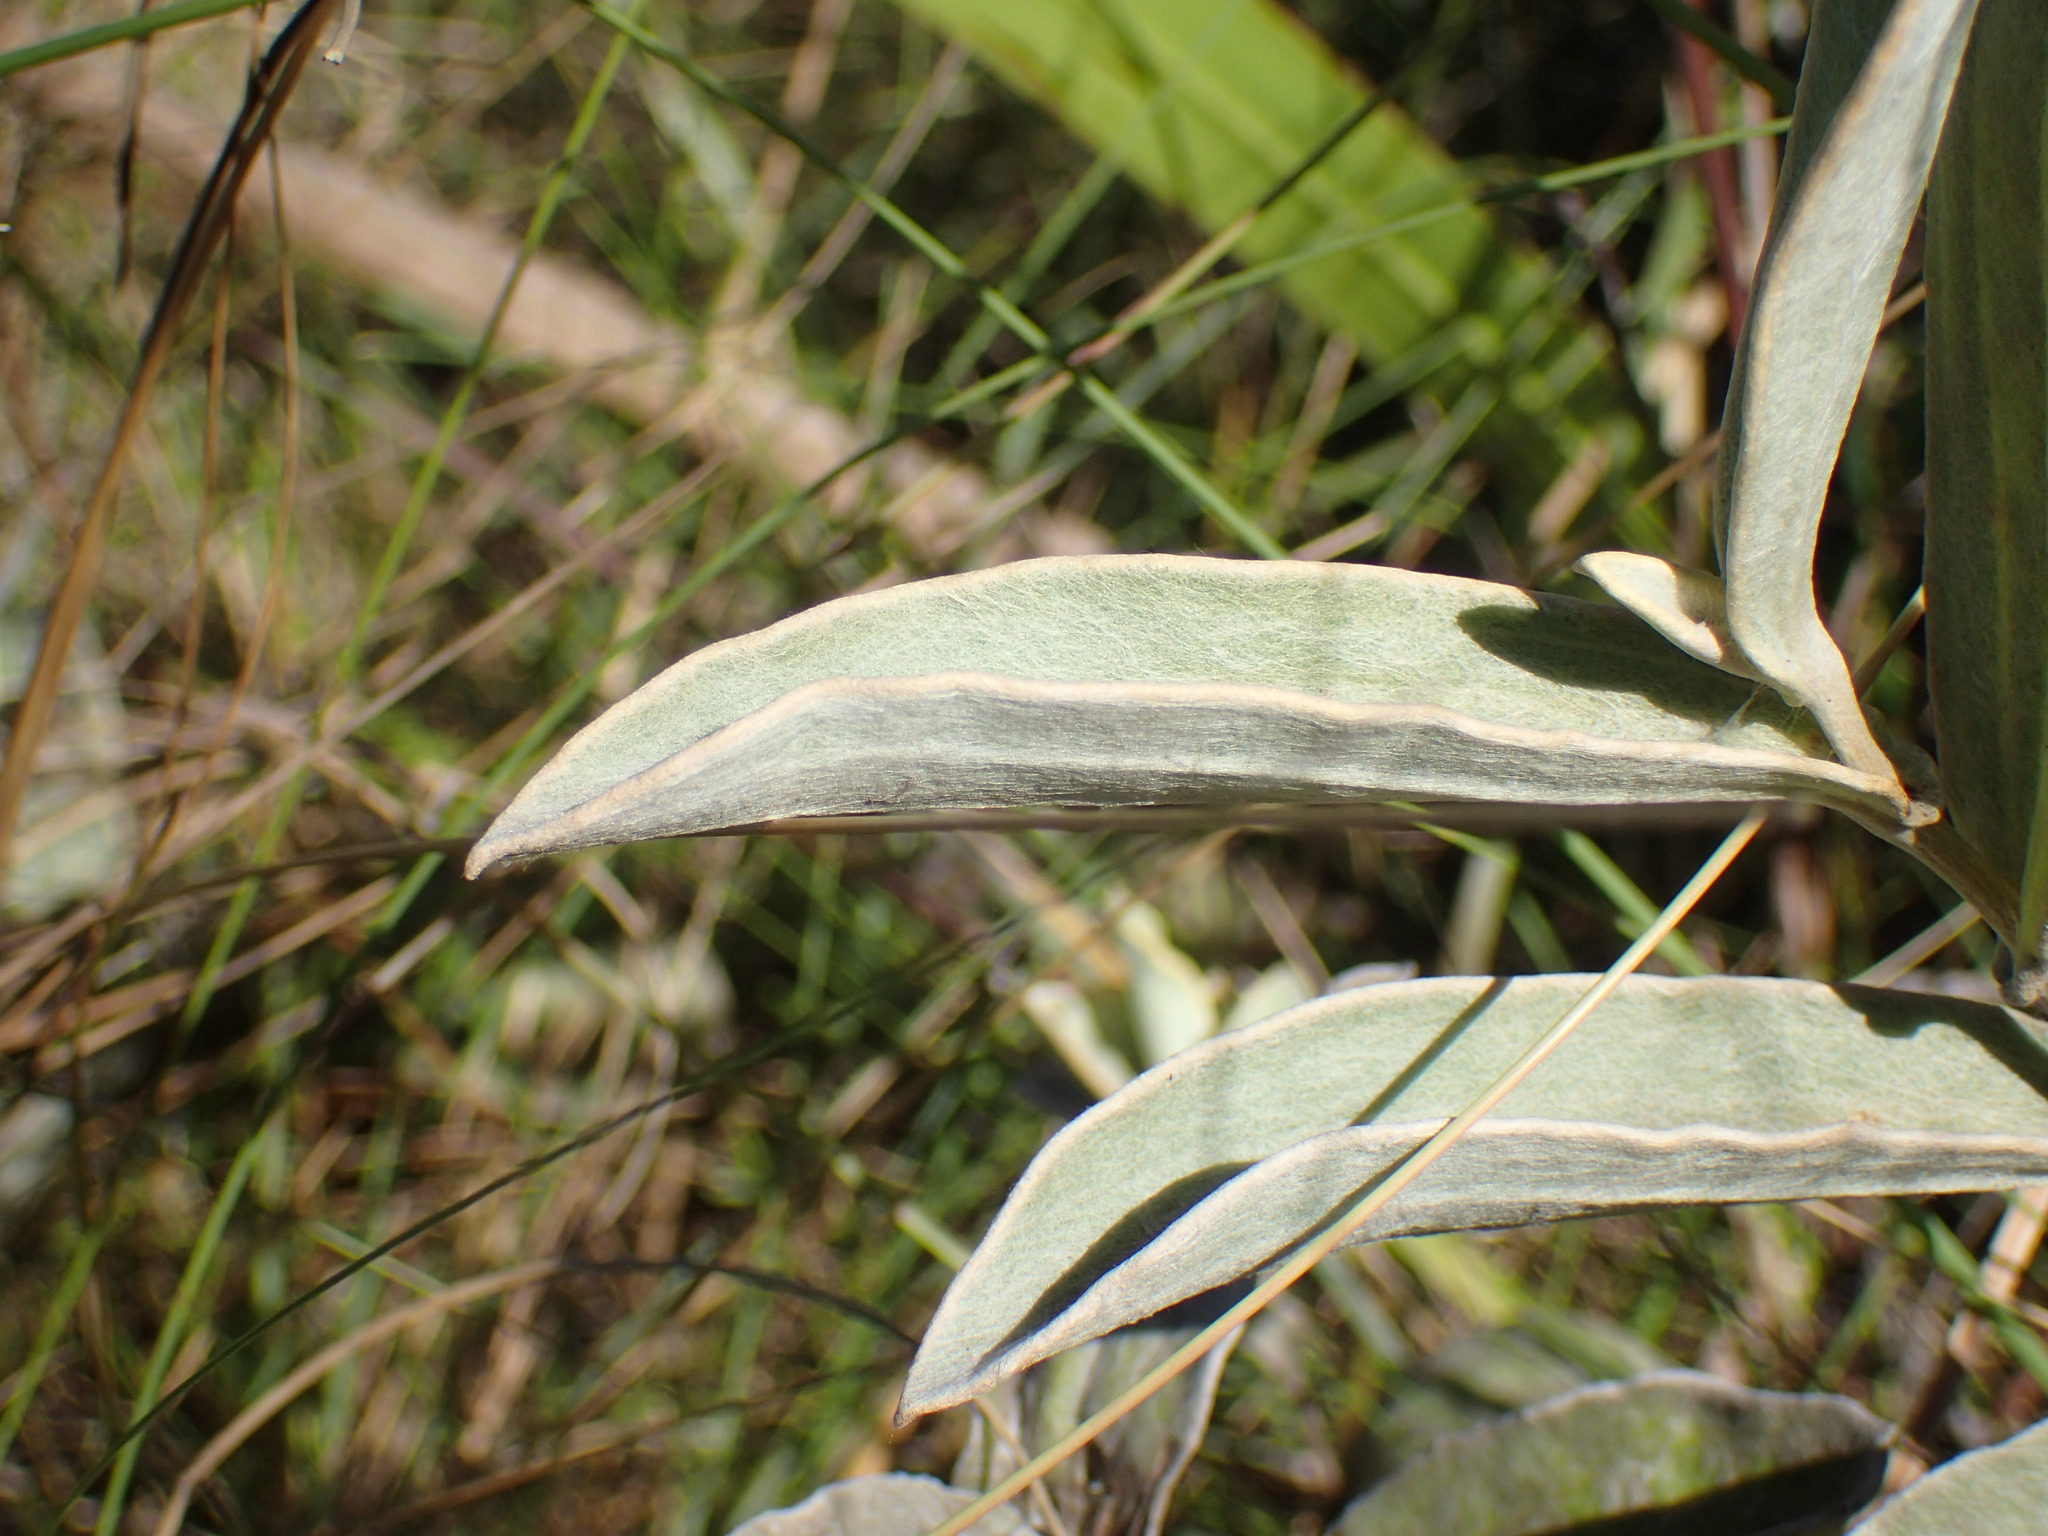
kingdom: Plantae
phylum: Tracheophyta
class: Magnoliopsida
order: Asterales
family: Asteraceae
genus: Helichrysum
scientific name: Helichrysum pannosum
